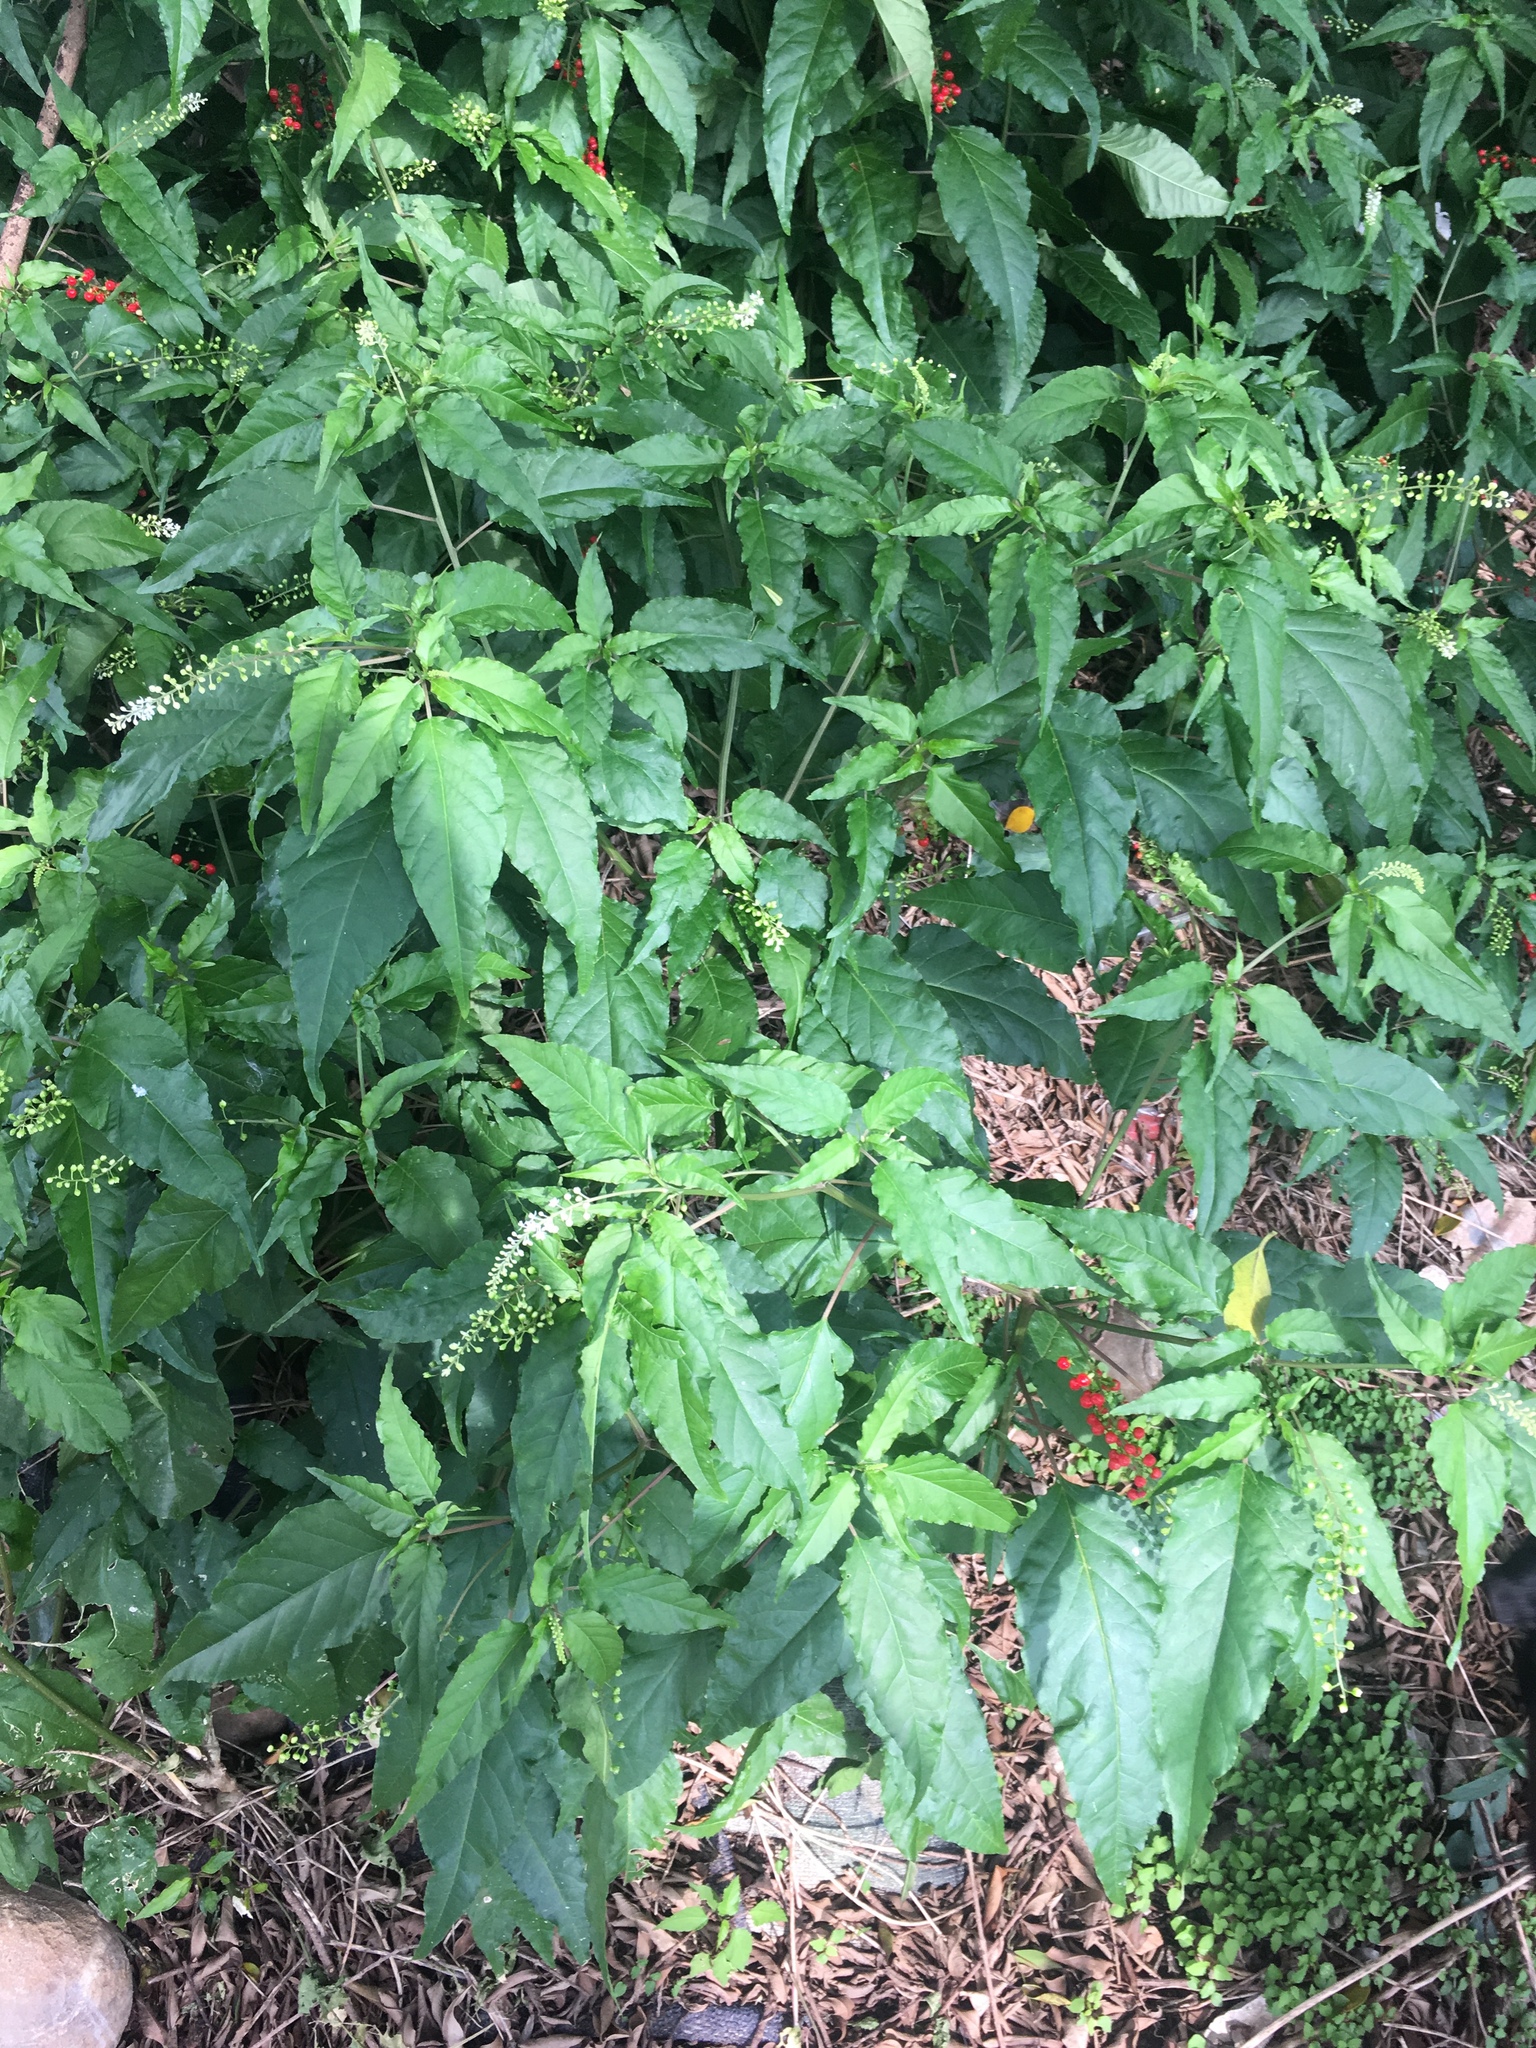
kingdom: Plantae
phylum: Tracheophyta
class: Magnoliopsida
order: Caryophyllales
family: Phytolaccaceae
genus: Rivina
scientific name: Rivina humilis
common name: Rougeplant
